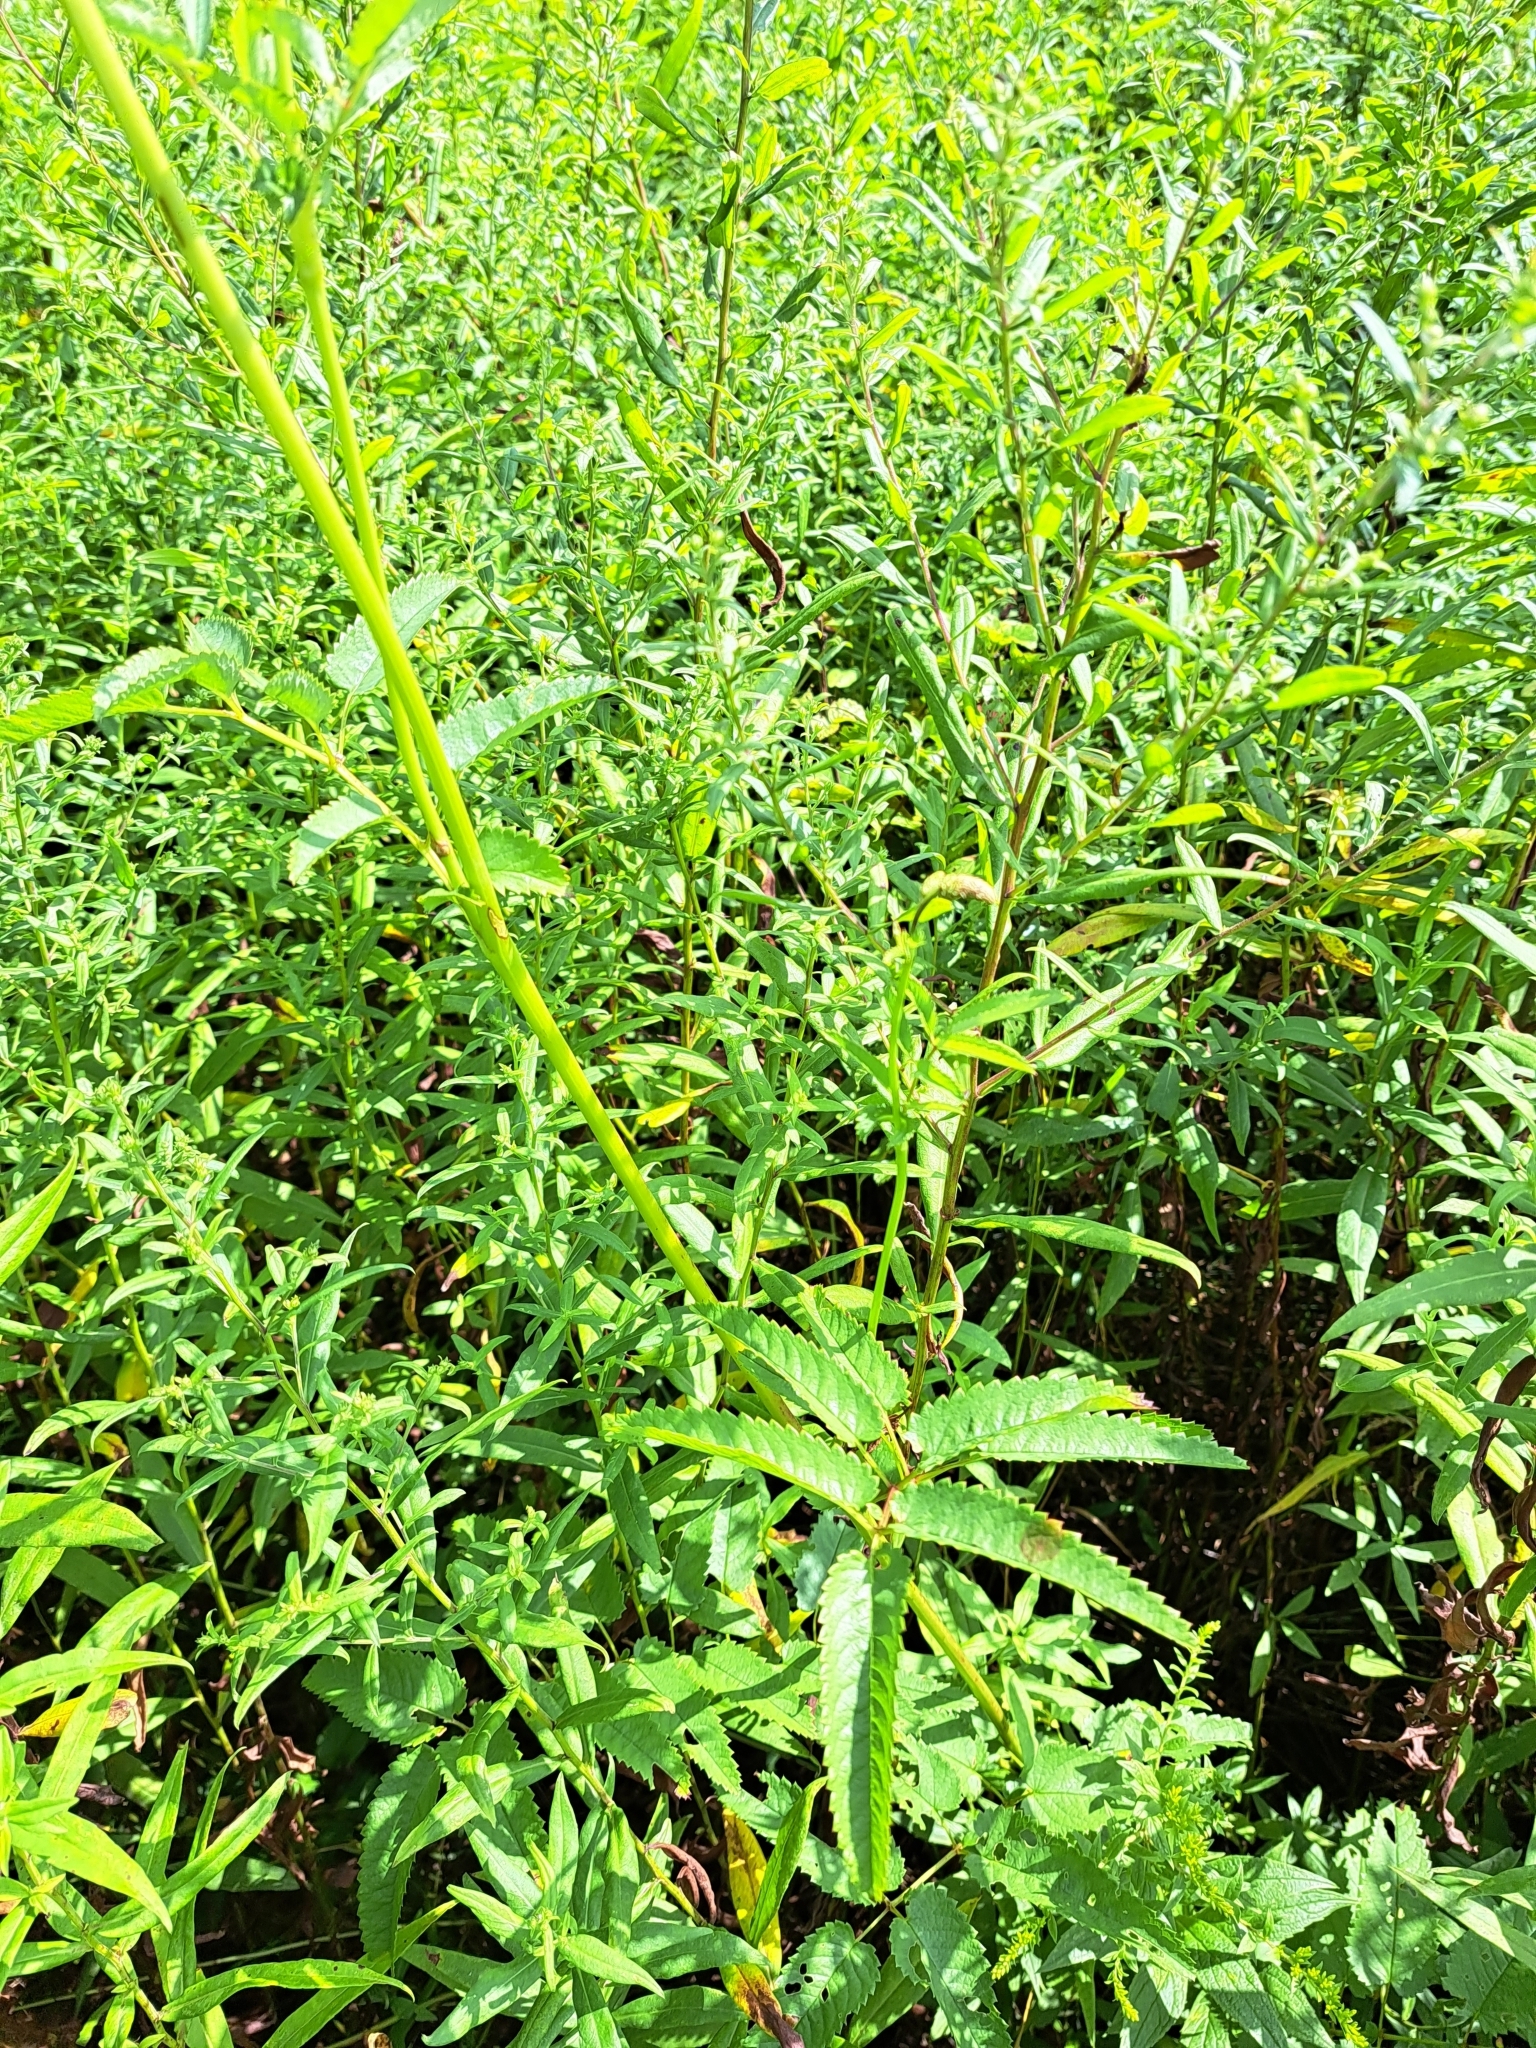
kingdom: Plantae
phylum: Tracheophyta
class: Magnoliopsida
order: Rosales
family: Rosaceae
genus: Sanguisorba
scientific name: Sanguisorba canadensis
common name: White burnet
